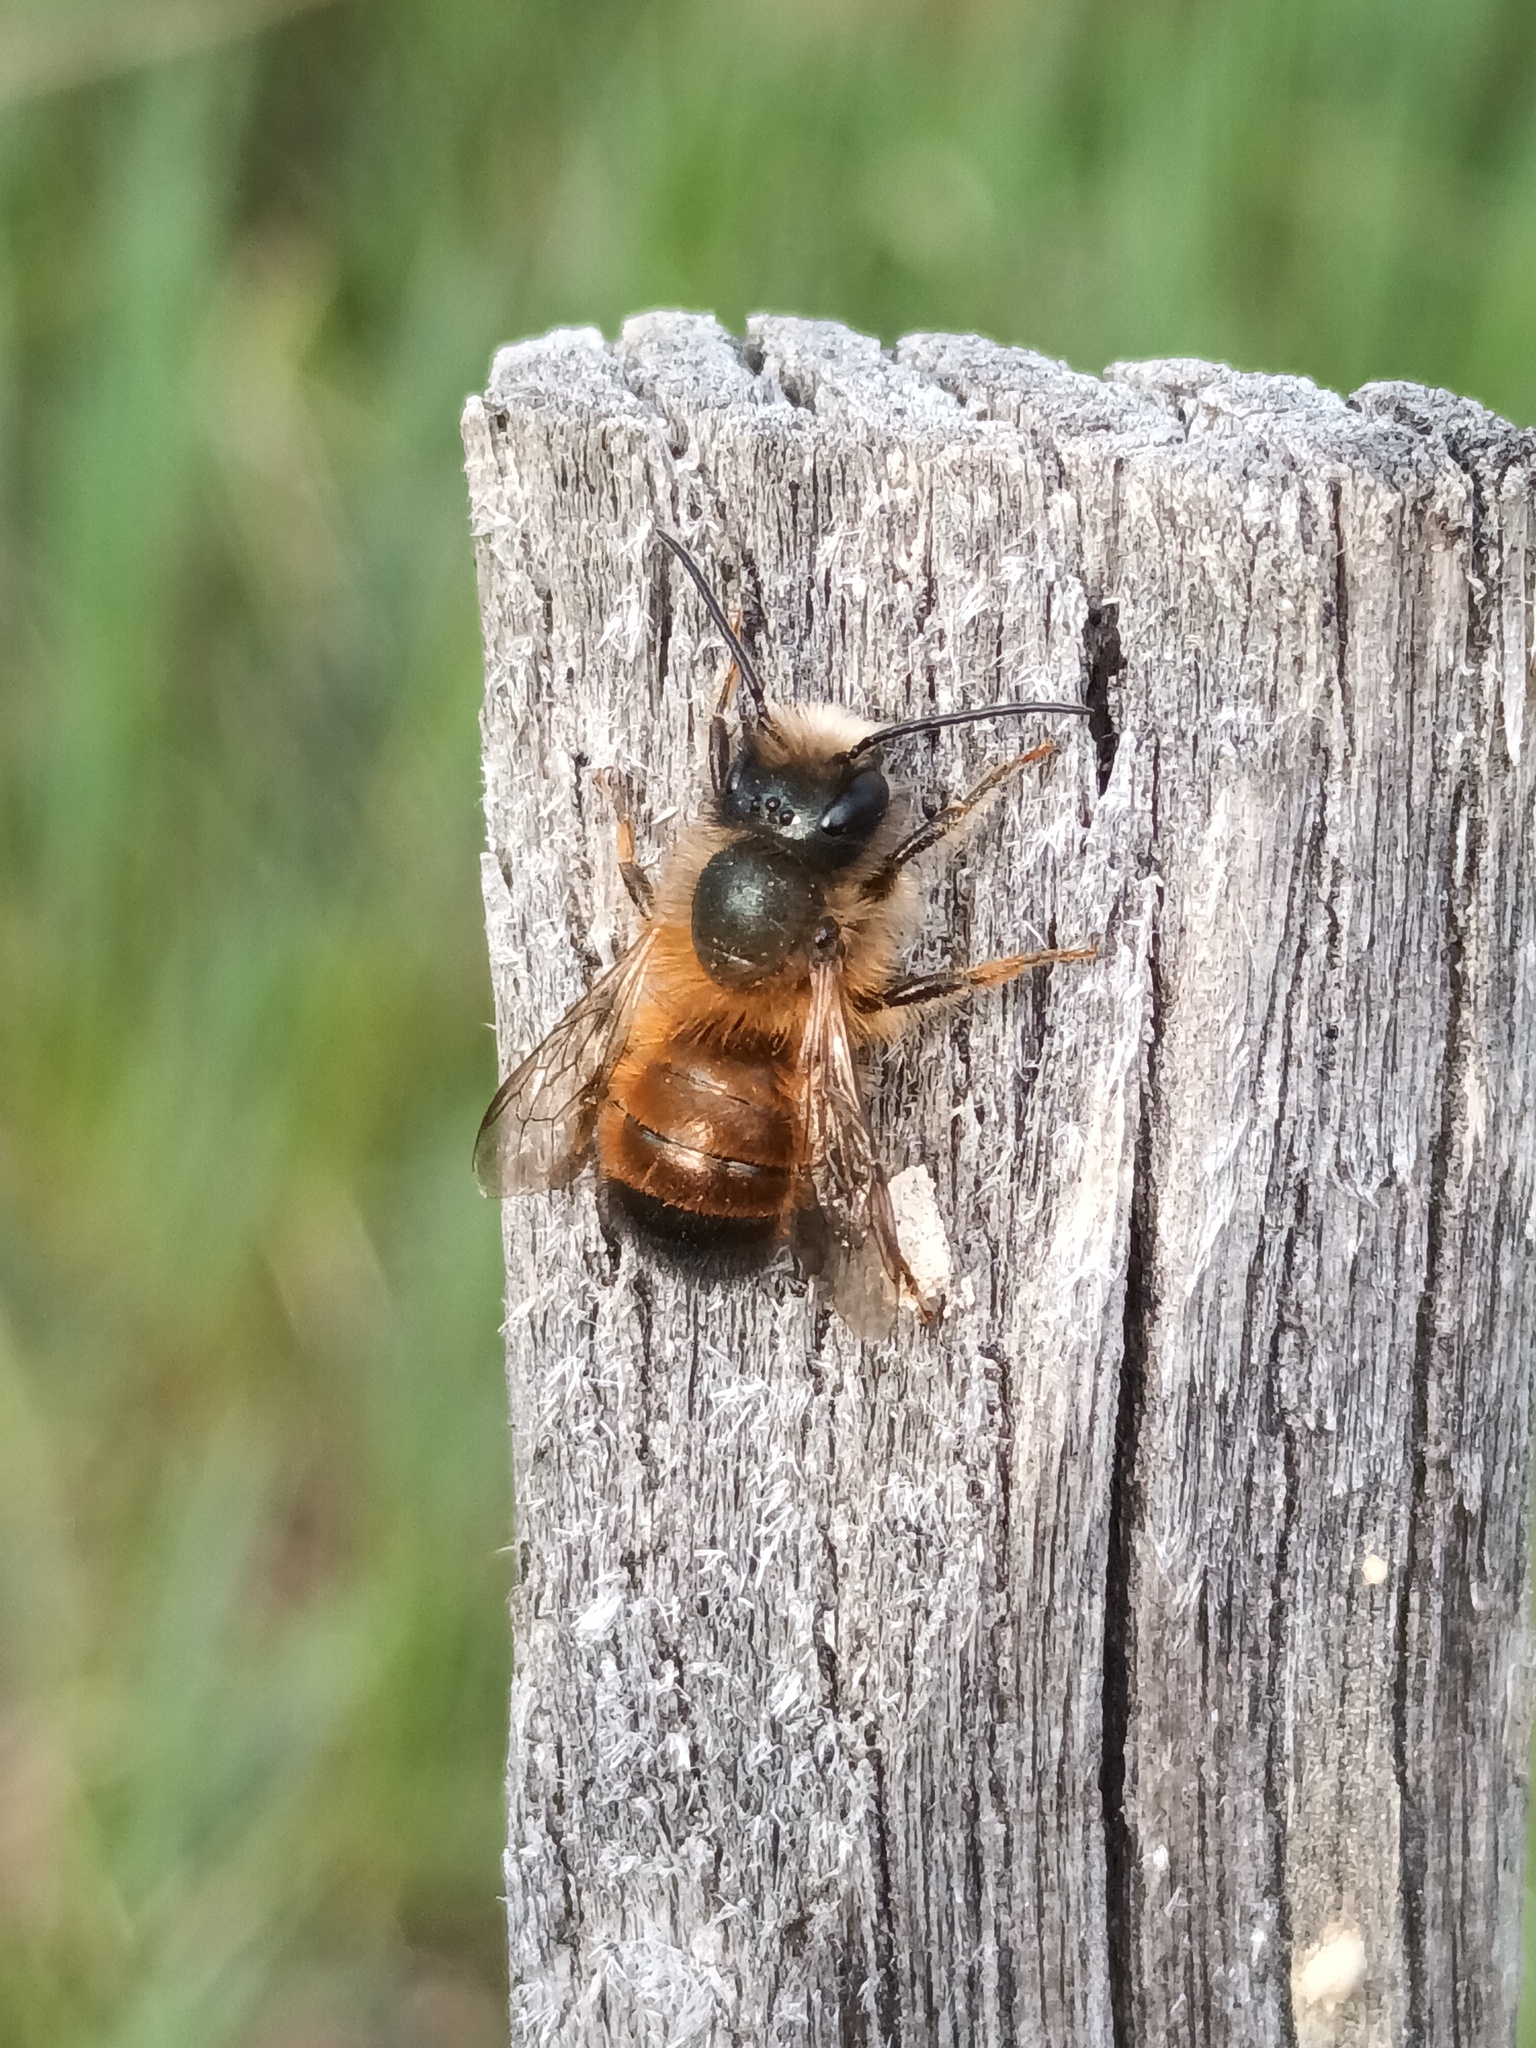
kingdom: Animalia
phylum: Arthropoda
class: Insecta
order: Hymenoptera
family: Megachilidae
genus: Osmia
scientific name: Osmia bicornis
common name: Red mason bee
